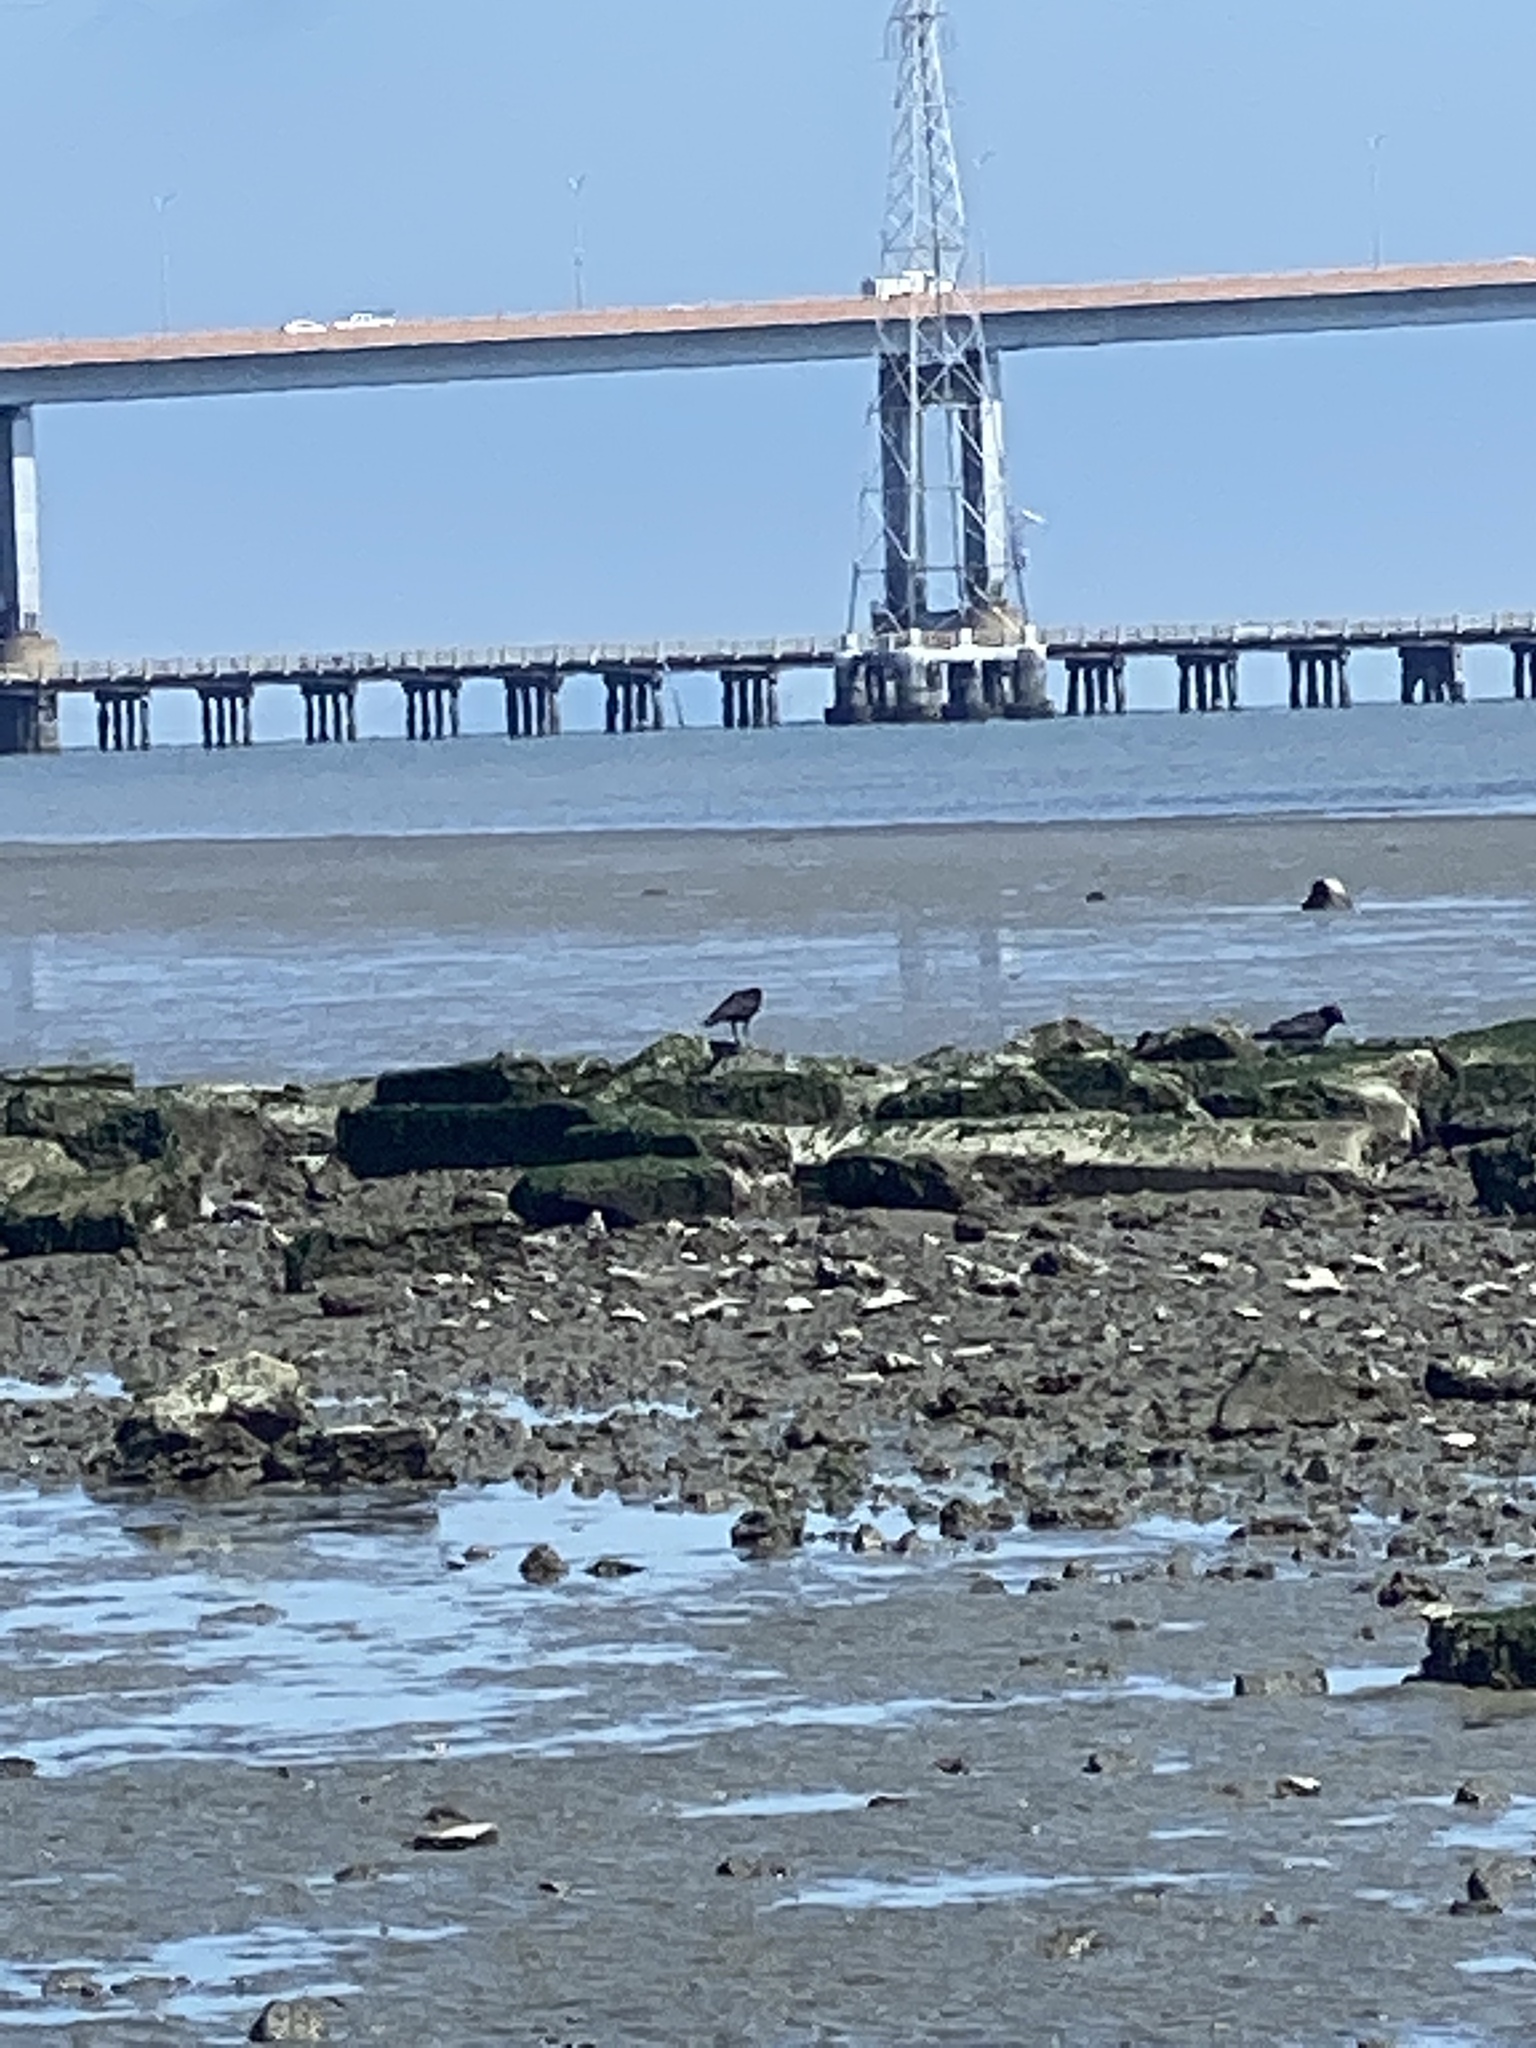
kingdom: Animalia
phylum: Chordata
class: Aves
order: Passeriformes
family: Corvidae
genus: Corvus
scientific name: Corvus brachyrhynchos
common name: American crow
